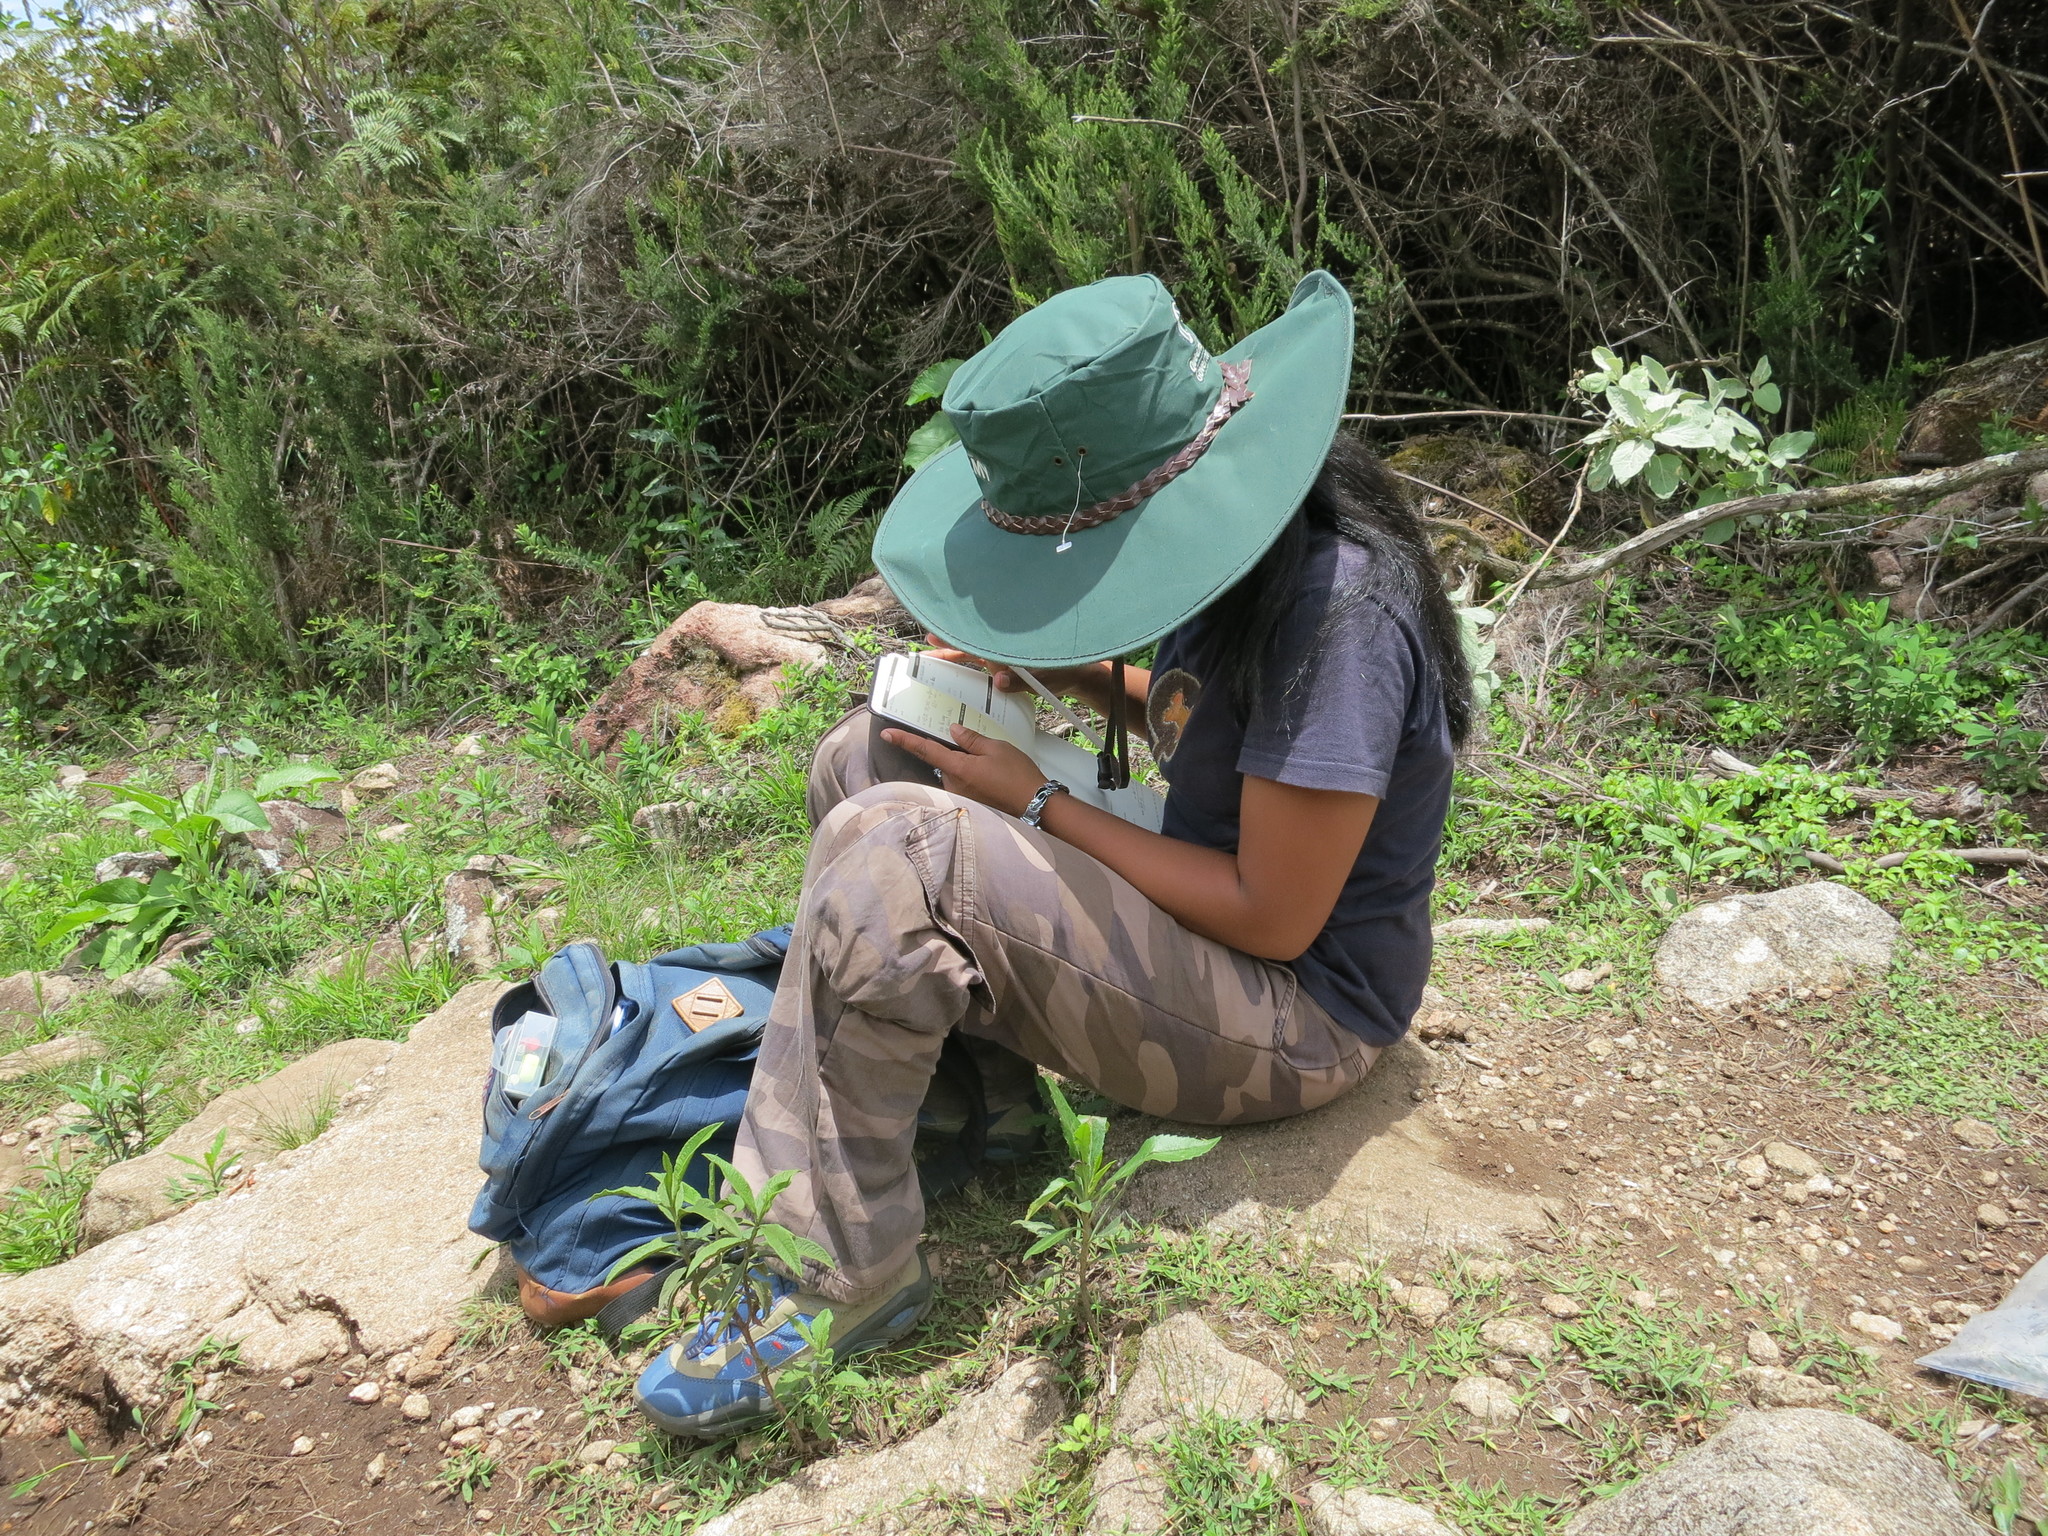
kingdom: Plantae
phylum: Tracheophyta
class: Liliopsida
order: Poales
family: Poaceae
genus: Eragrostis
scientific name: Eragrostis macilenta
